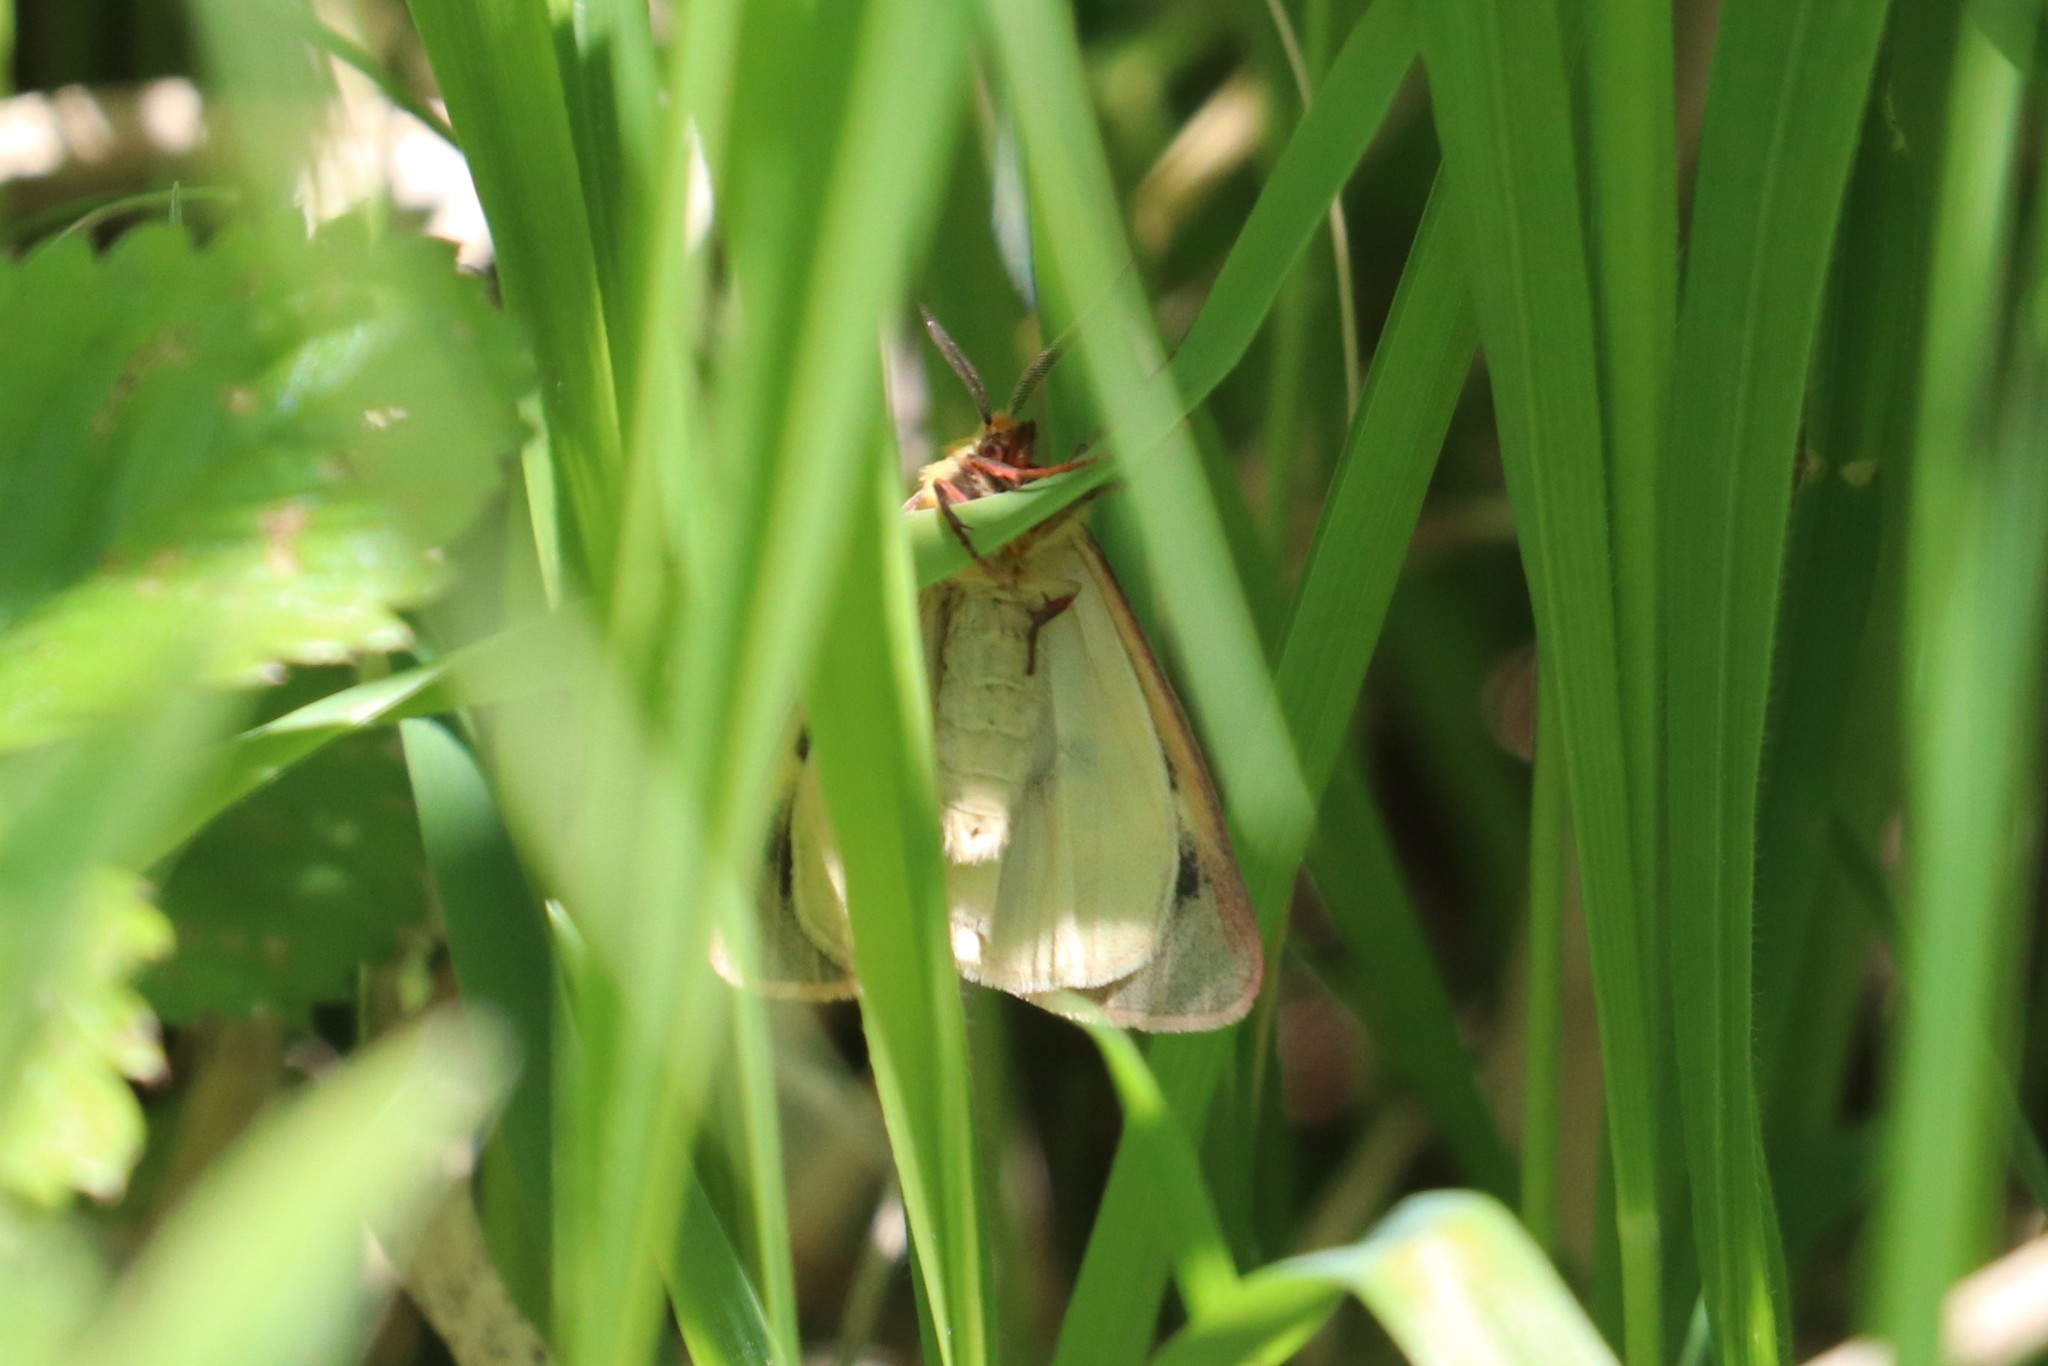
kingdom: Animalia
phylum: Arthropoda
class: Insecta
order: Lepidoptera
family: Erebidae
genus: Diacrisia
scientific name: Diacrisia sannio
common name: Clouded buff
